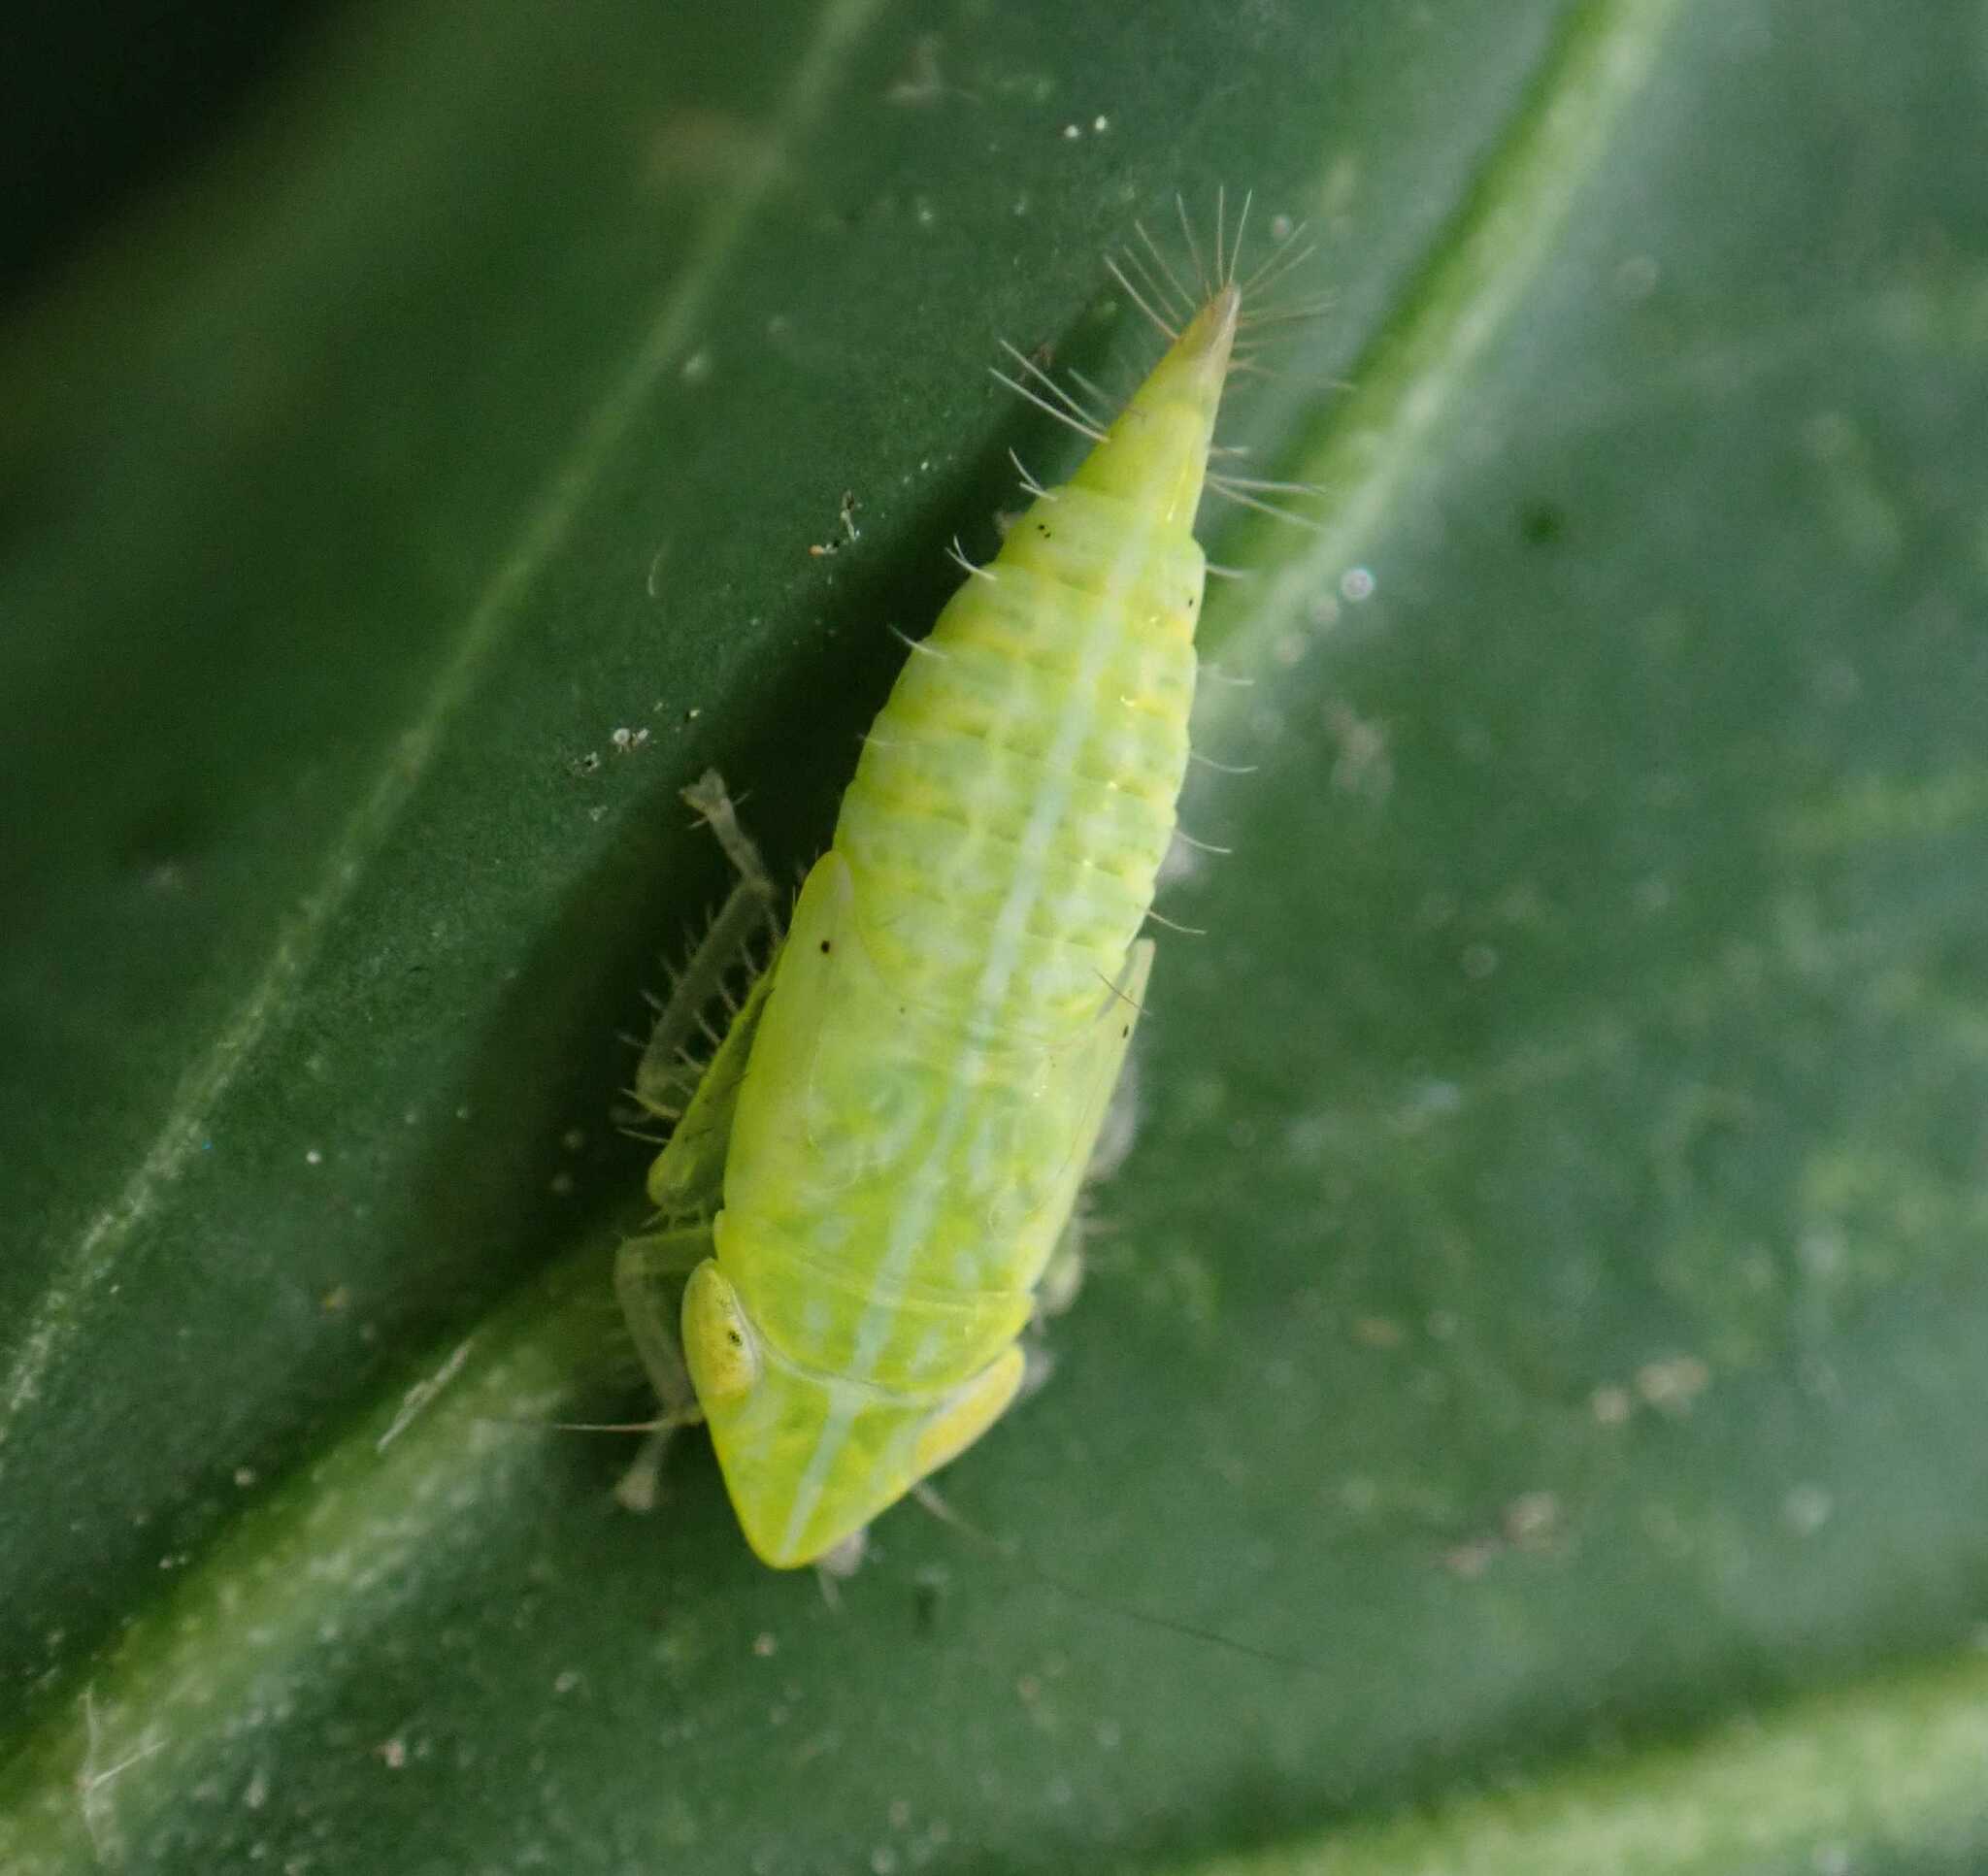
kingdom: Animalia
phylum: Arthropoda
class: Insecta
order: Hemiptera
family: Cicadellidae
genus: Synophropsis
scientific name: Synophropsis lauri
